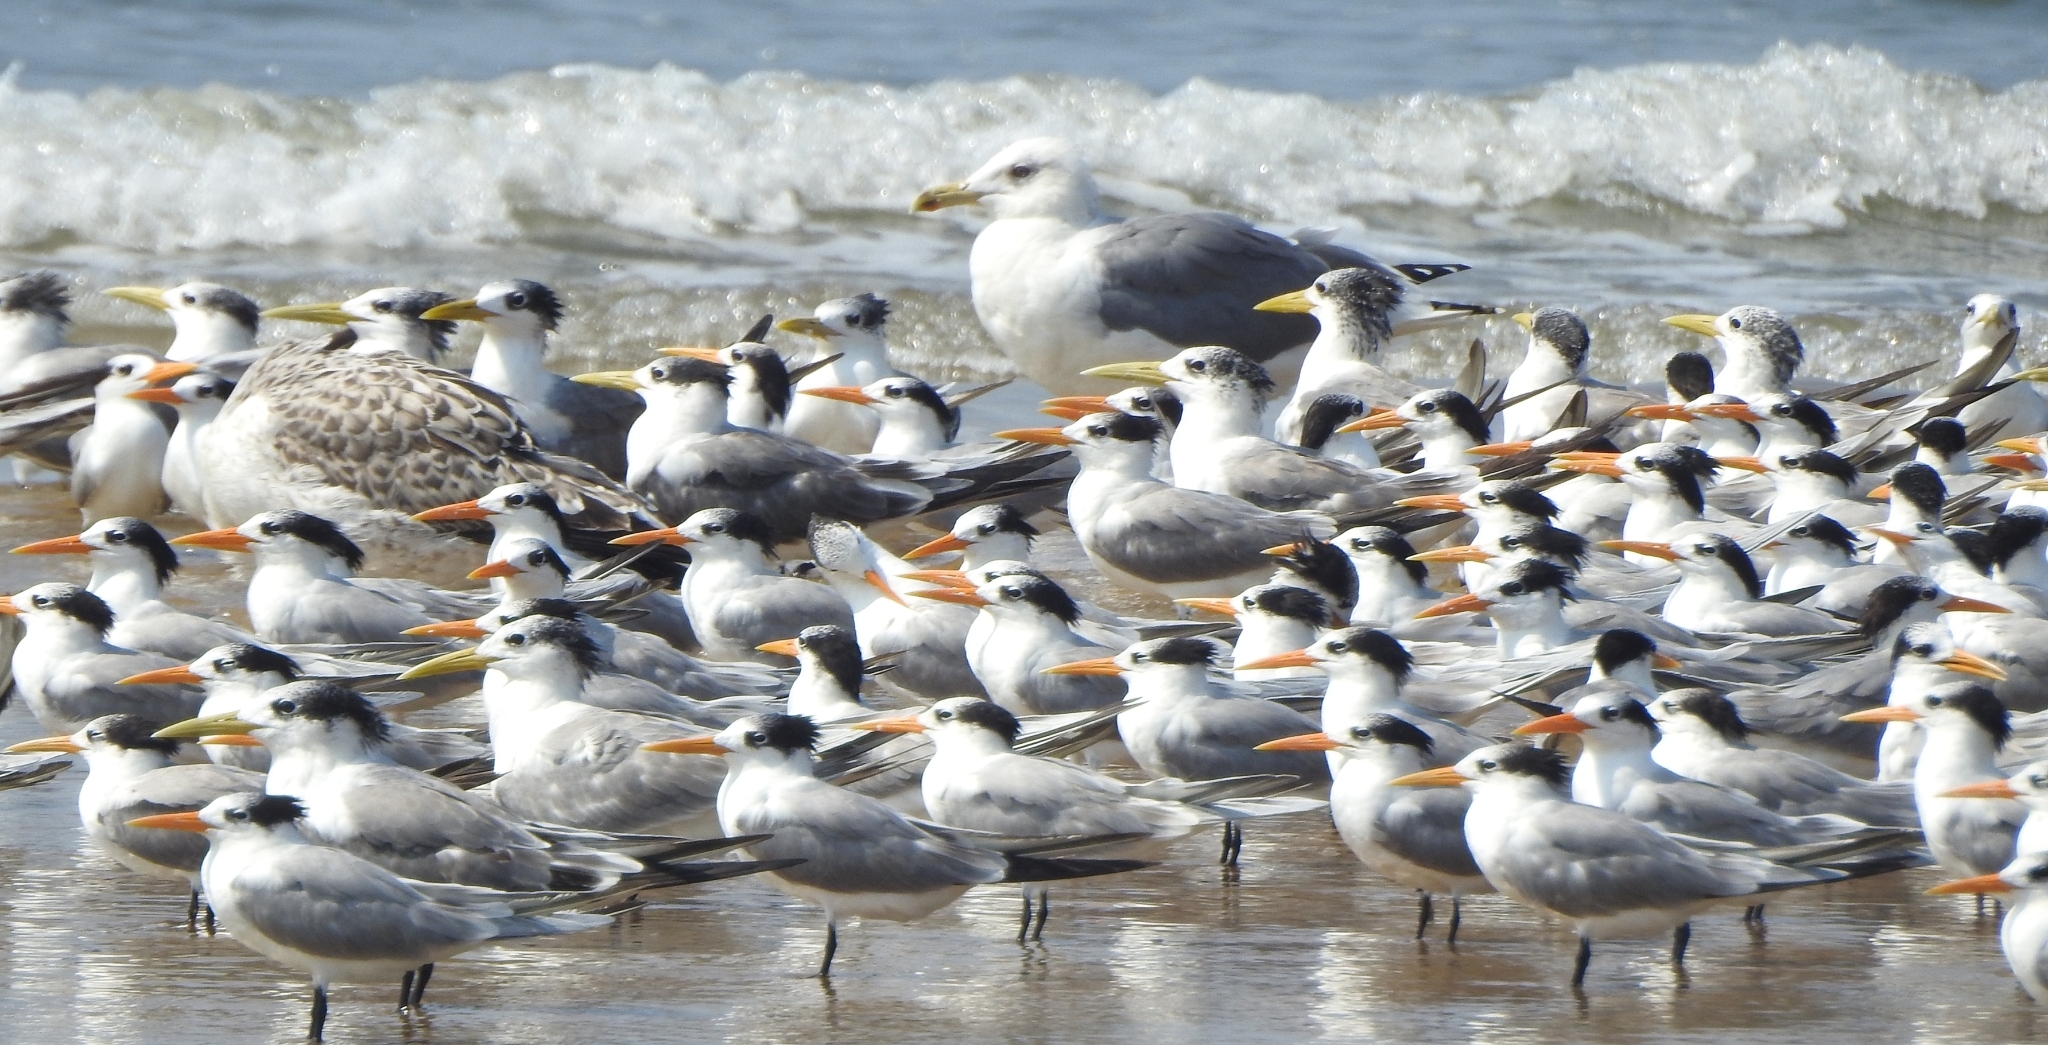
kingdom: Animalia
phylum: Chordata
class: Aves
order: Charadriiformes
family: Laridae
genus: Thalasseus
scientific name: Thalasseus bengalensis
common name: Lesser crested tern
